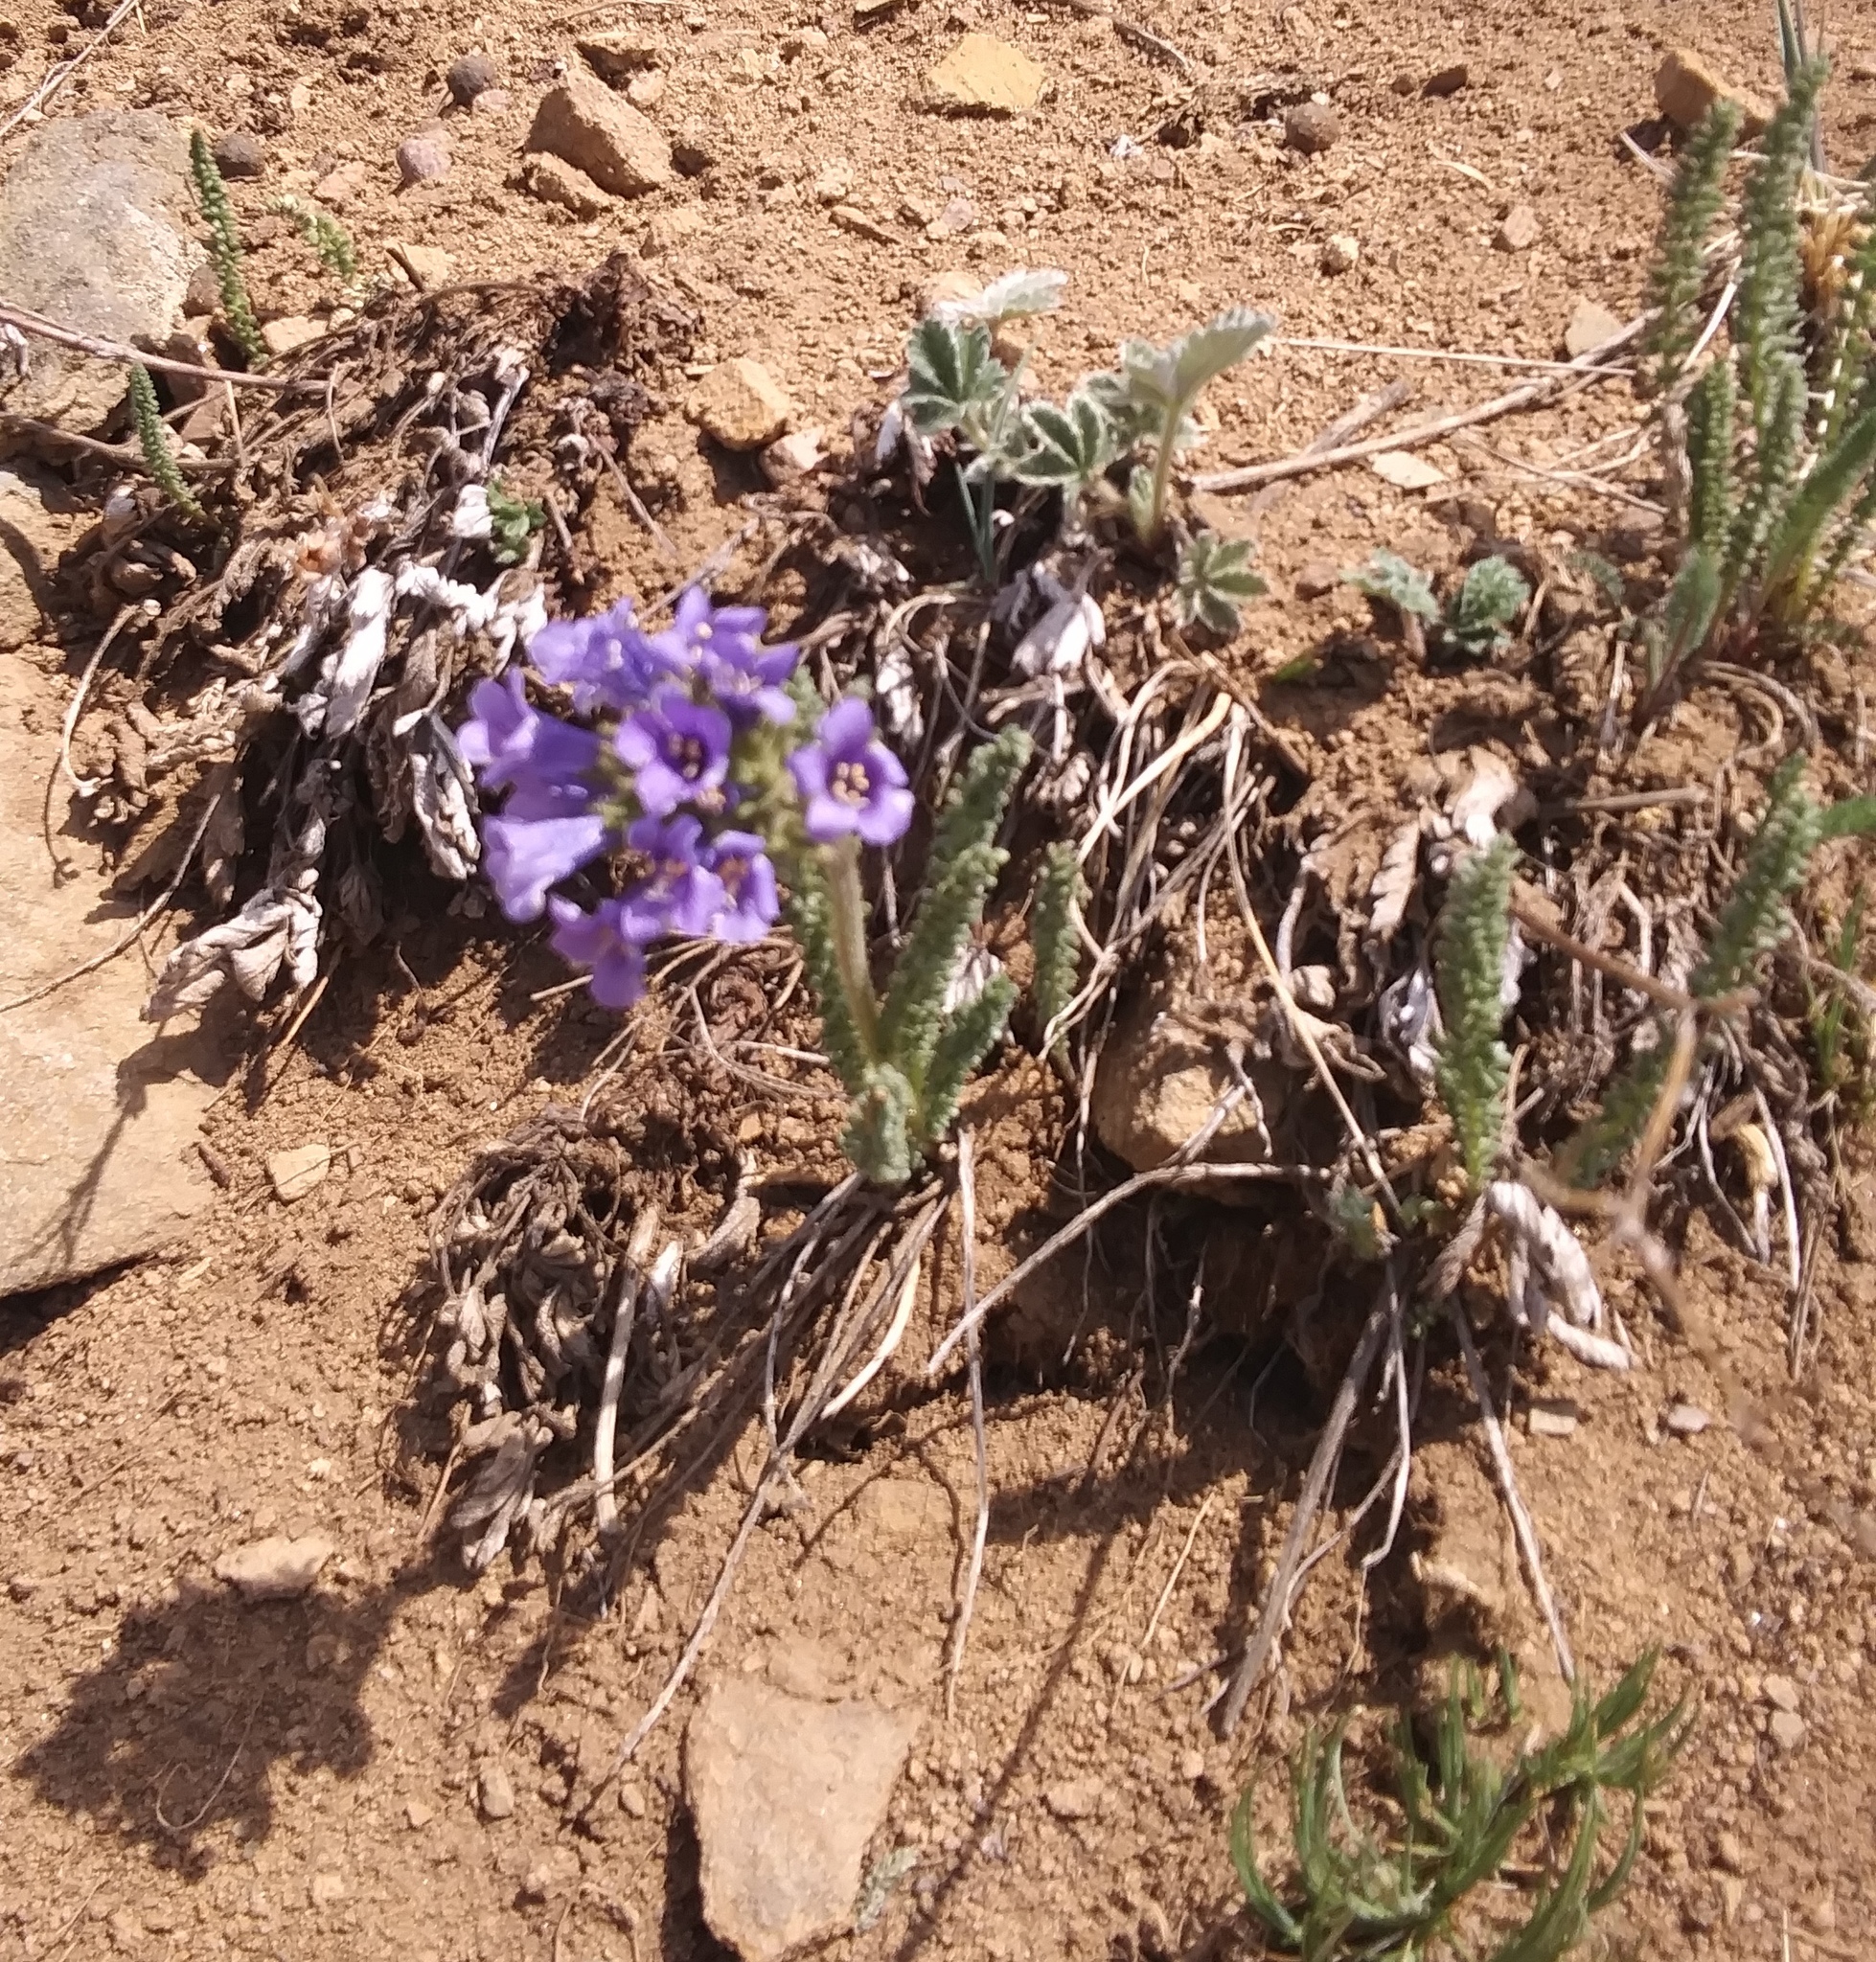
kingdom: Plantae
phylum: Tracheophyta
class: Magnoliopsida
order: Ericales
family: Polemoniaceae
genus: Polemonium
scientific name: Polemonium viscosum
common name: Skunk jacob's-ladder
